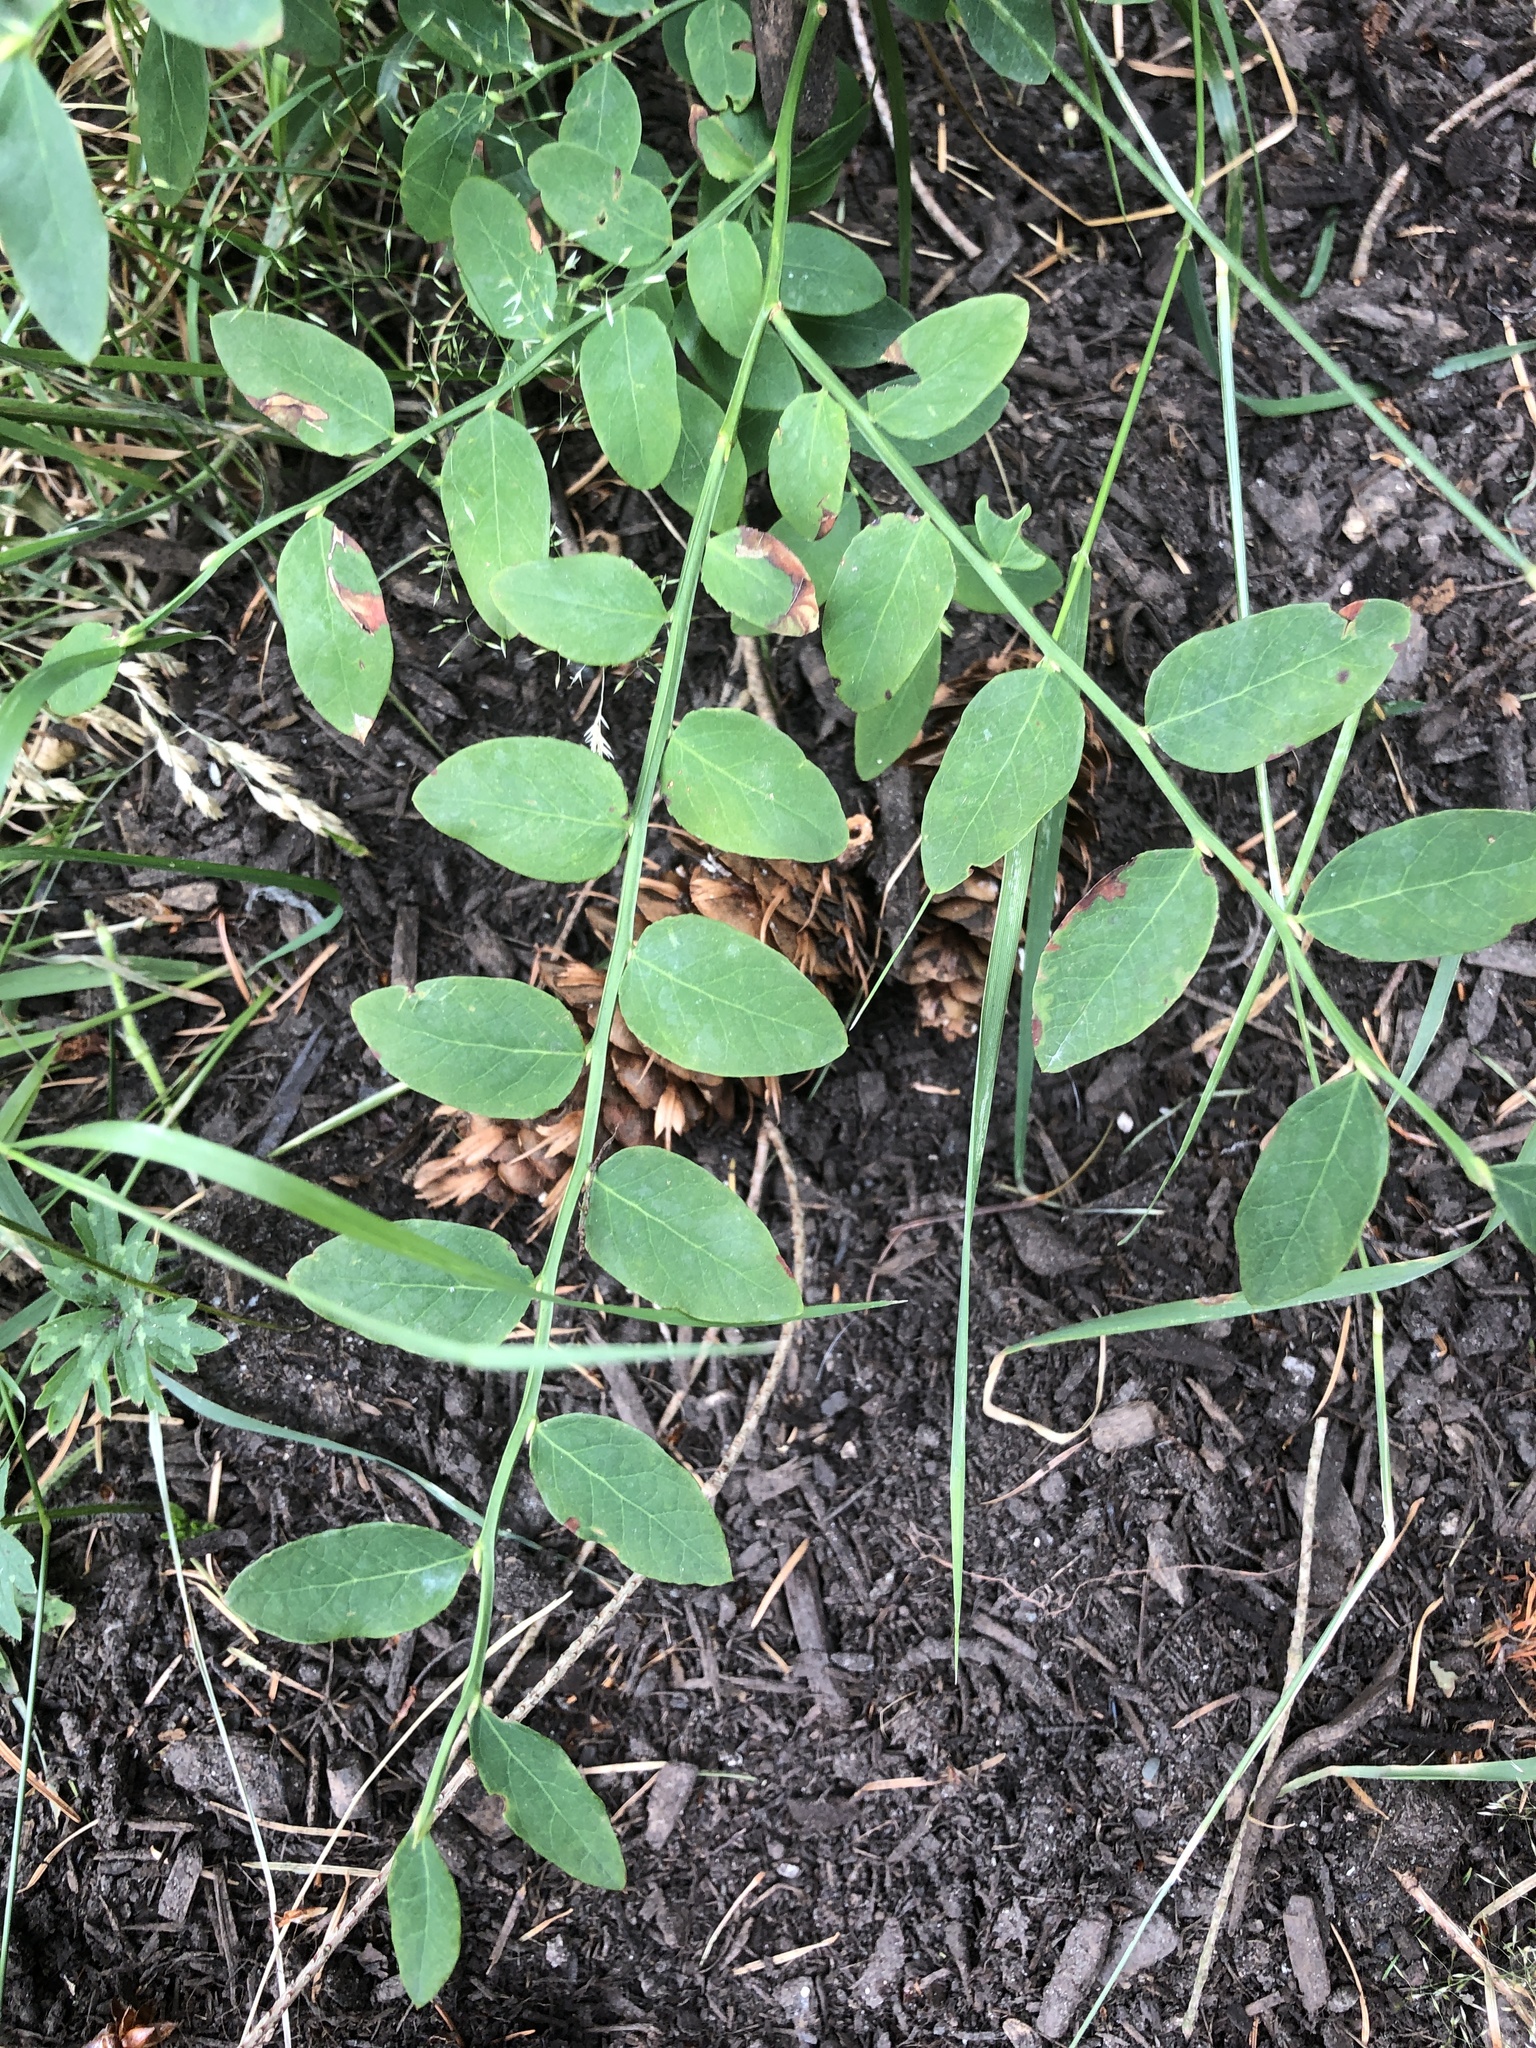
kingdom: Plantae
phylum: Tracheophyta
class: Magnoliopsida
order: Ericales
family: Ericaceae
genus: Vaccinium
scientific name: Vaccinium parvifolium
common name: Red-huckleberry
